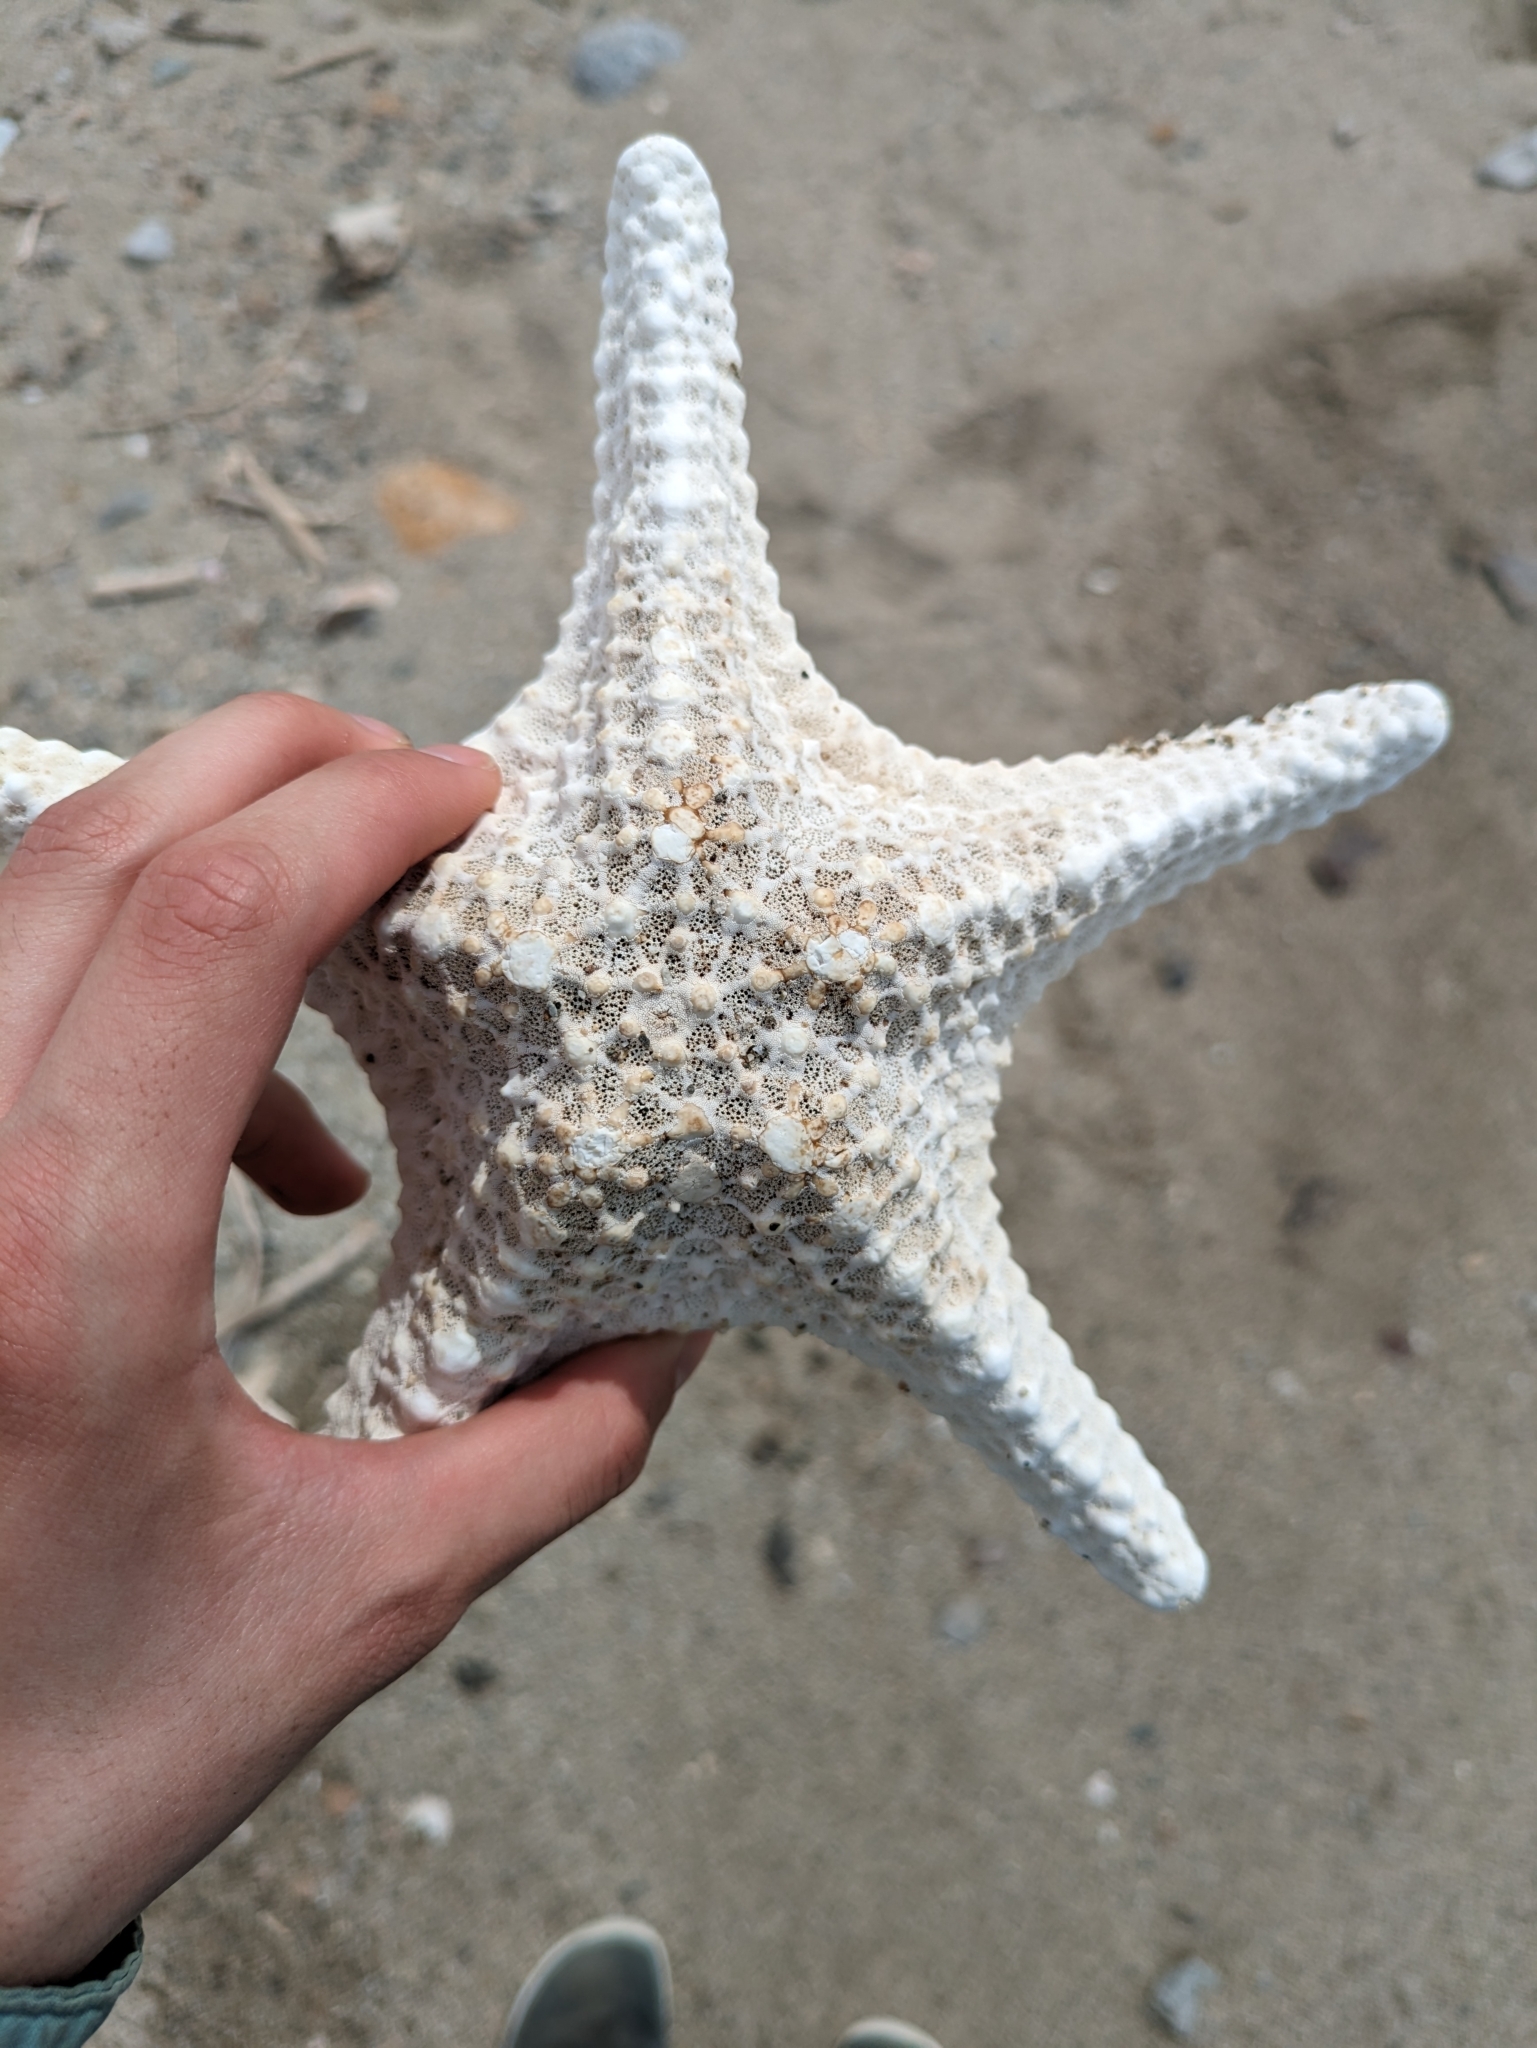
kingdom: Animalia
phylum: Echinodermata
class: Asteroidea
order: Valvatida
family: Oreasteridae
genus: Pentaceraster
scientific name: Pentaceraster cumingi
